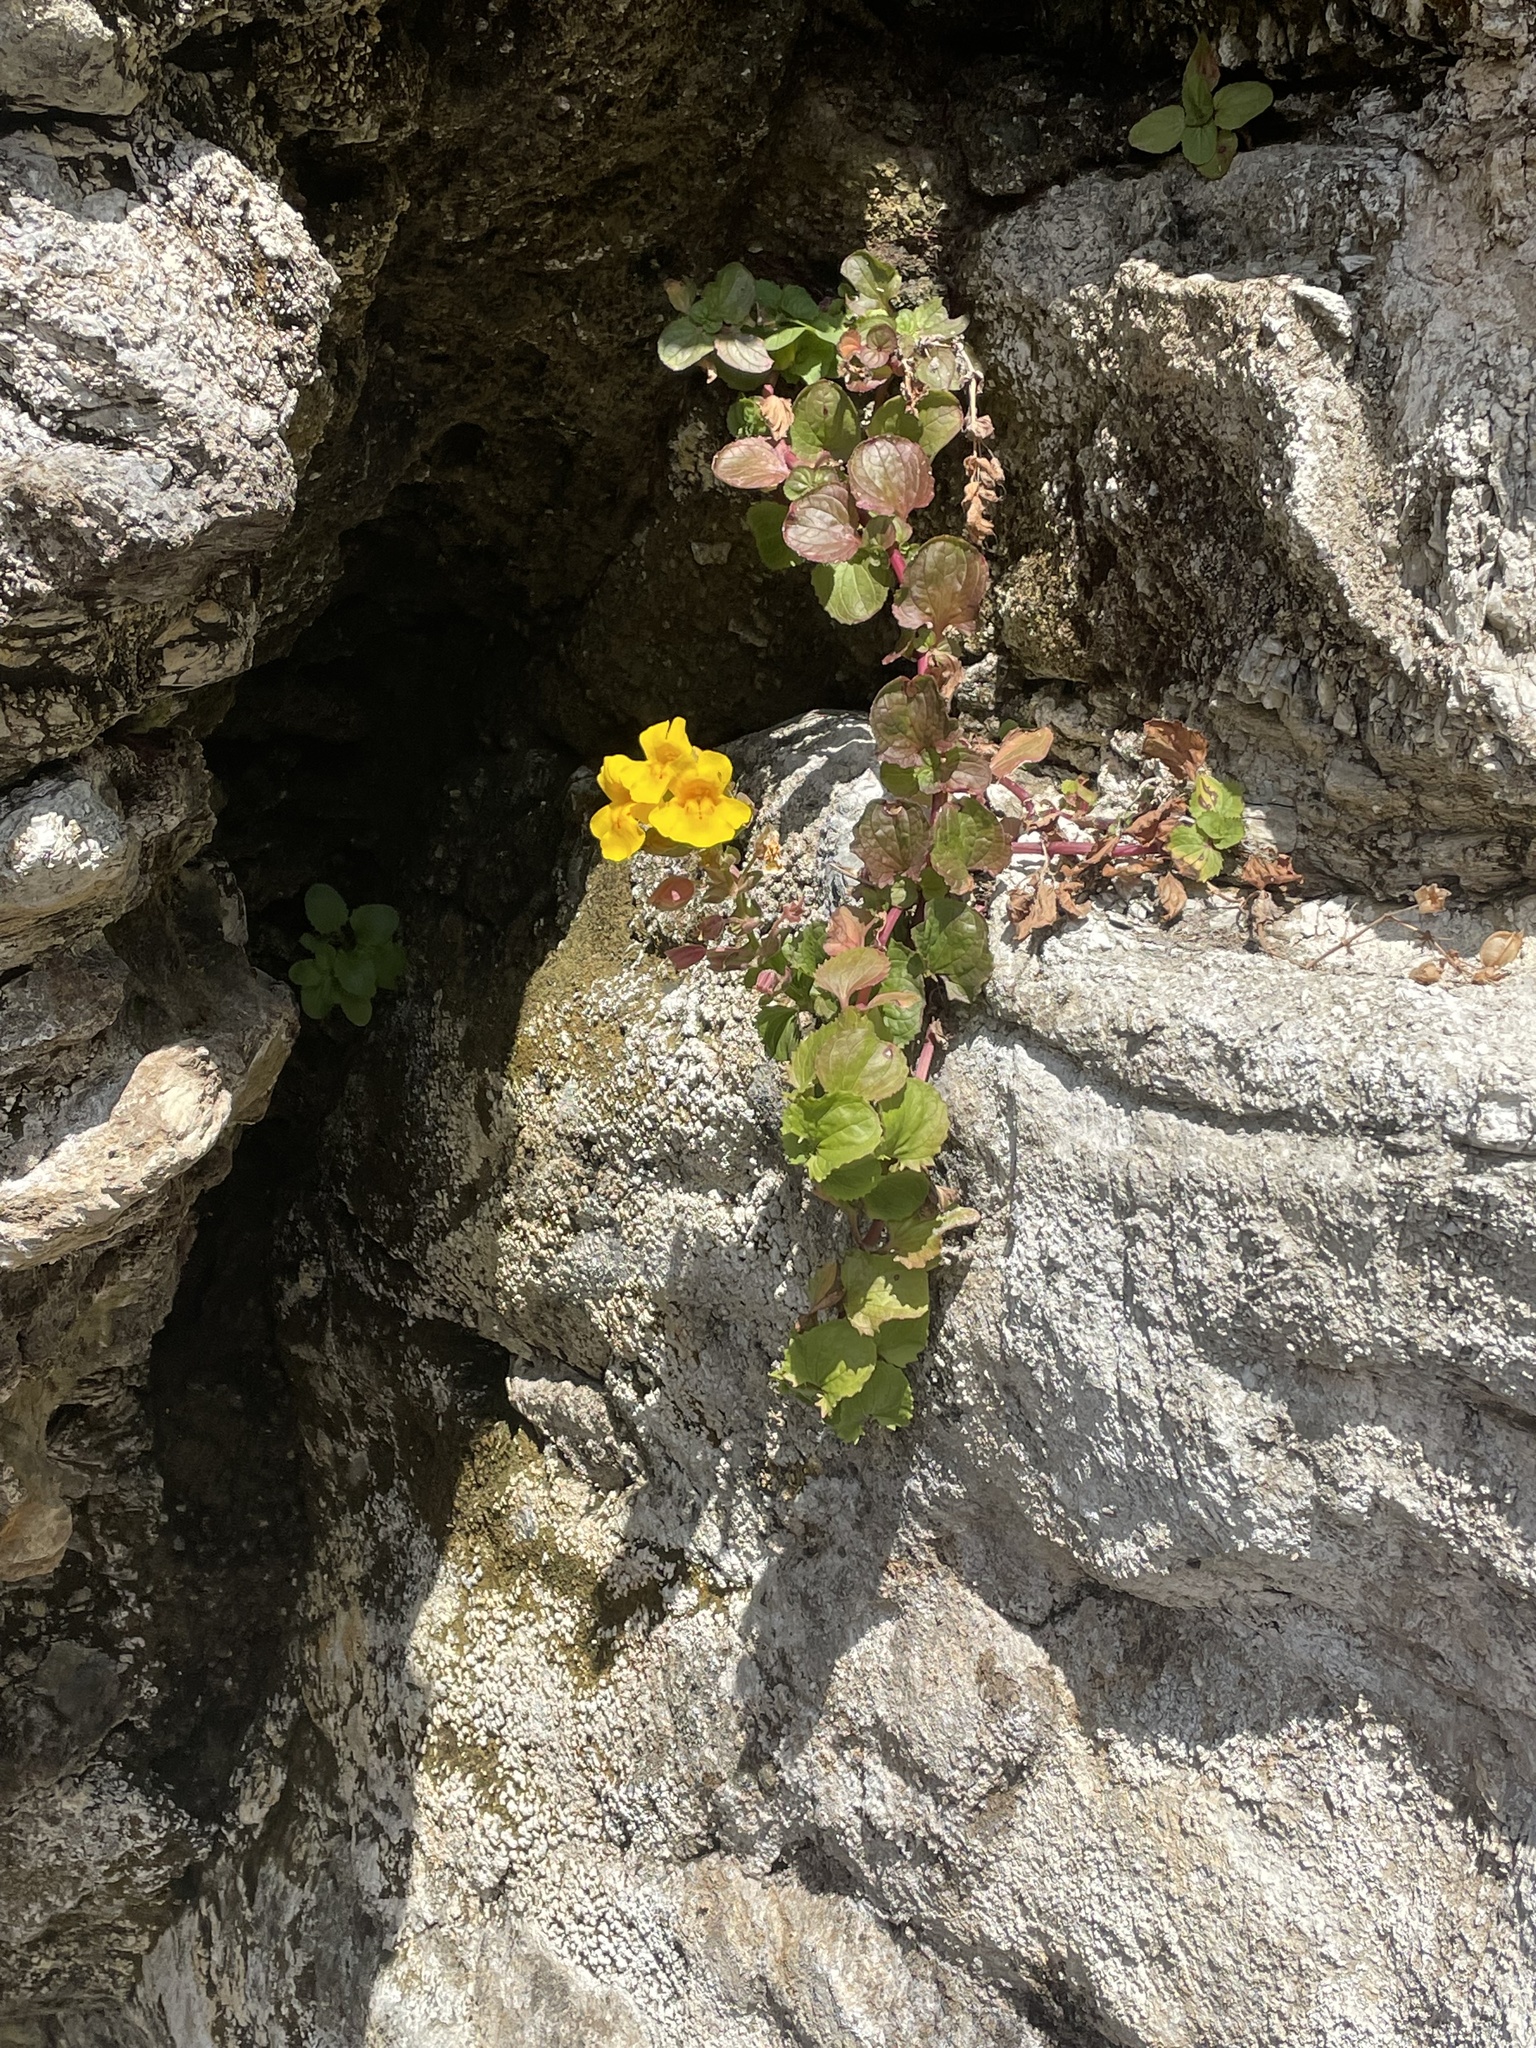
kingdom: Plantae
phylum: Tracheophyta
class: Magnoliopsida
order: Lamiales
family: Phrymaceae
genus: Erythranthe
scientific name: Erythranthe grandis
